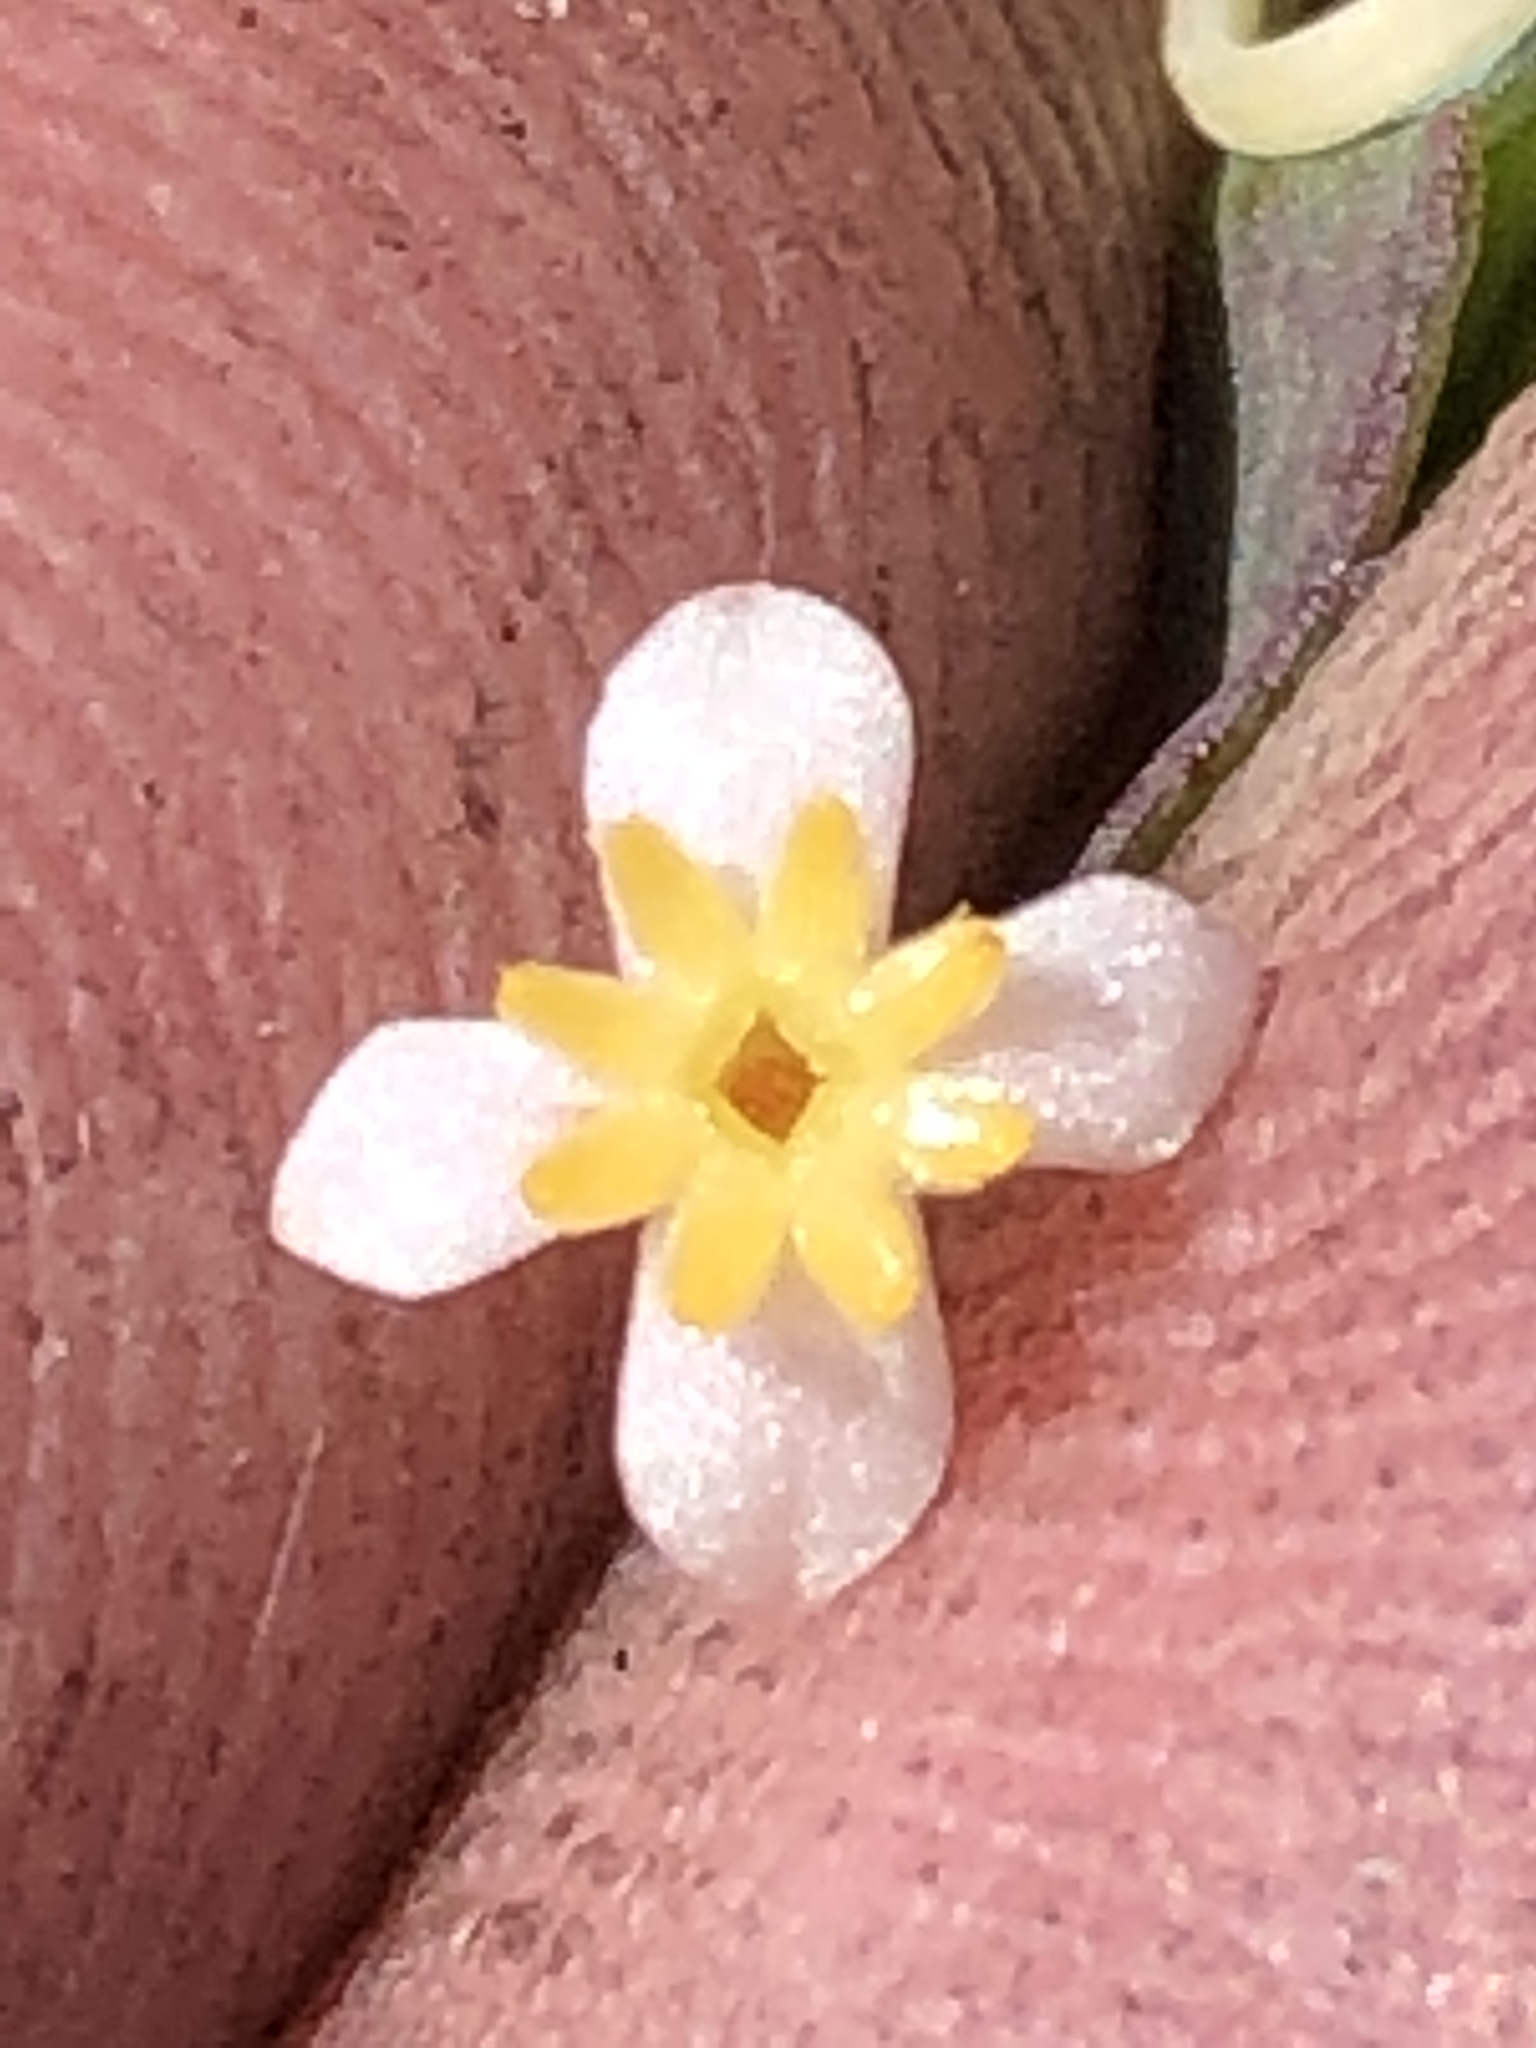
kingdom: Plantae
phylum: Tracheophyta
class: Magnoliopsida
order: Malvales
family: Thymelaeaceae
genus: Struthiola
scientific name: Struthiola dodecandra
